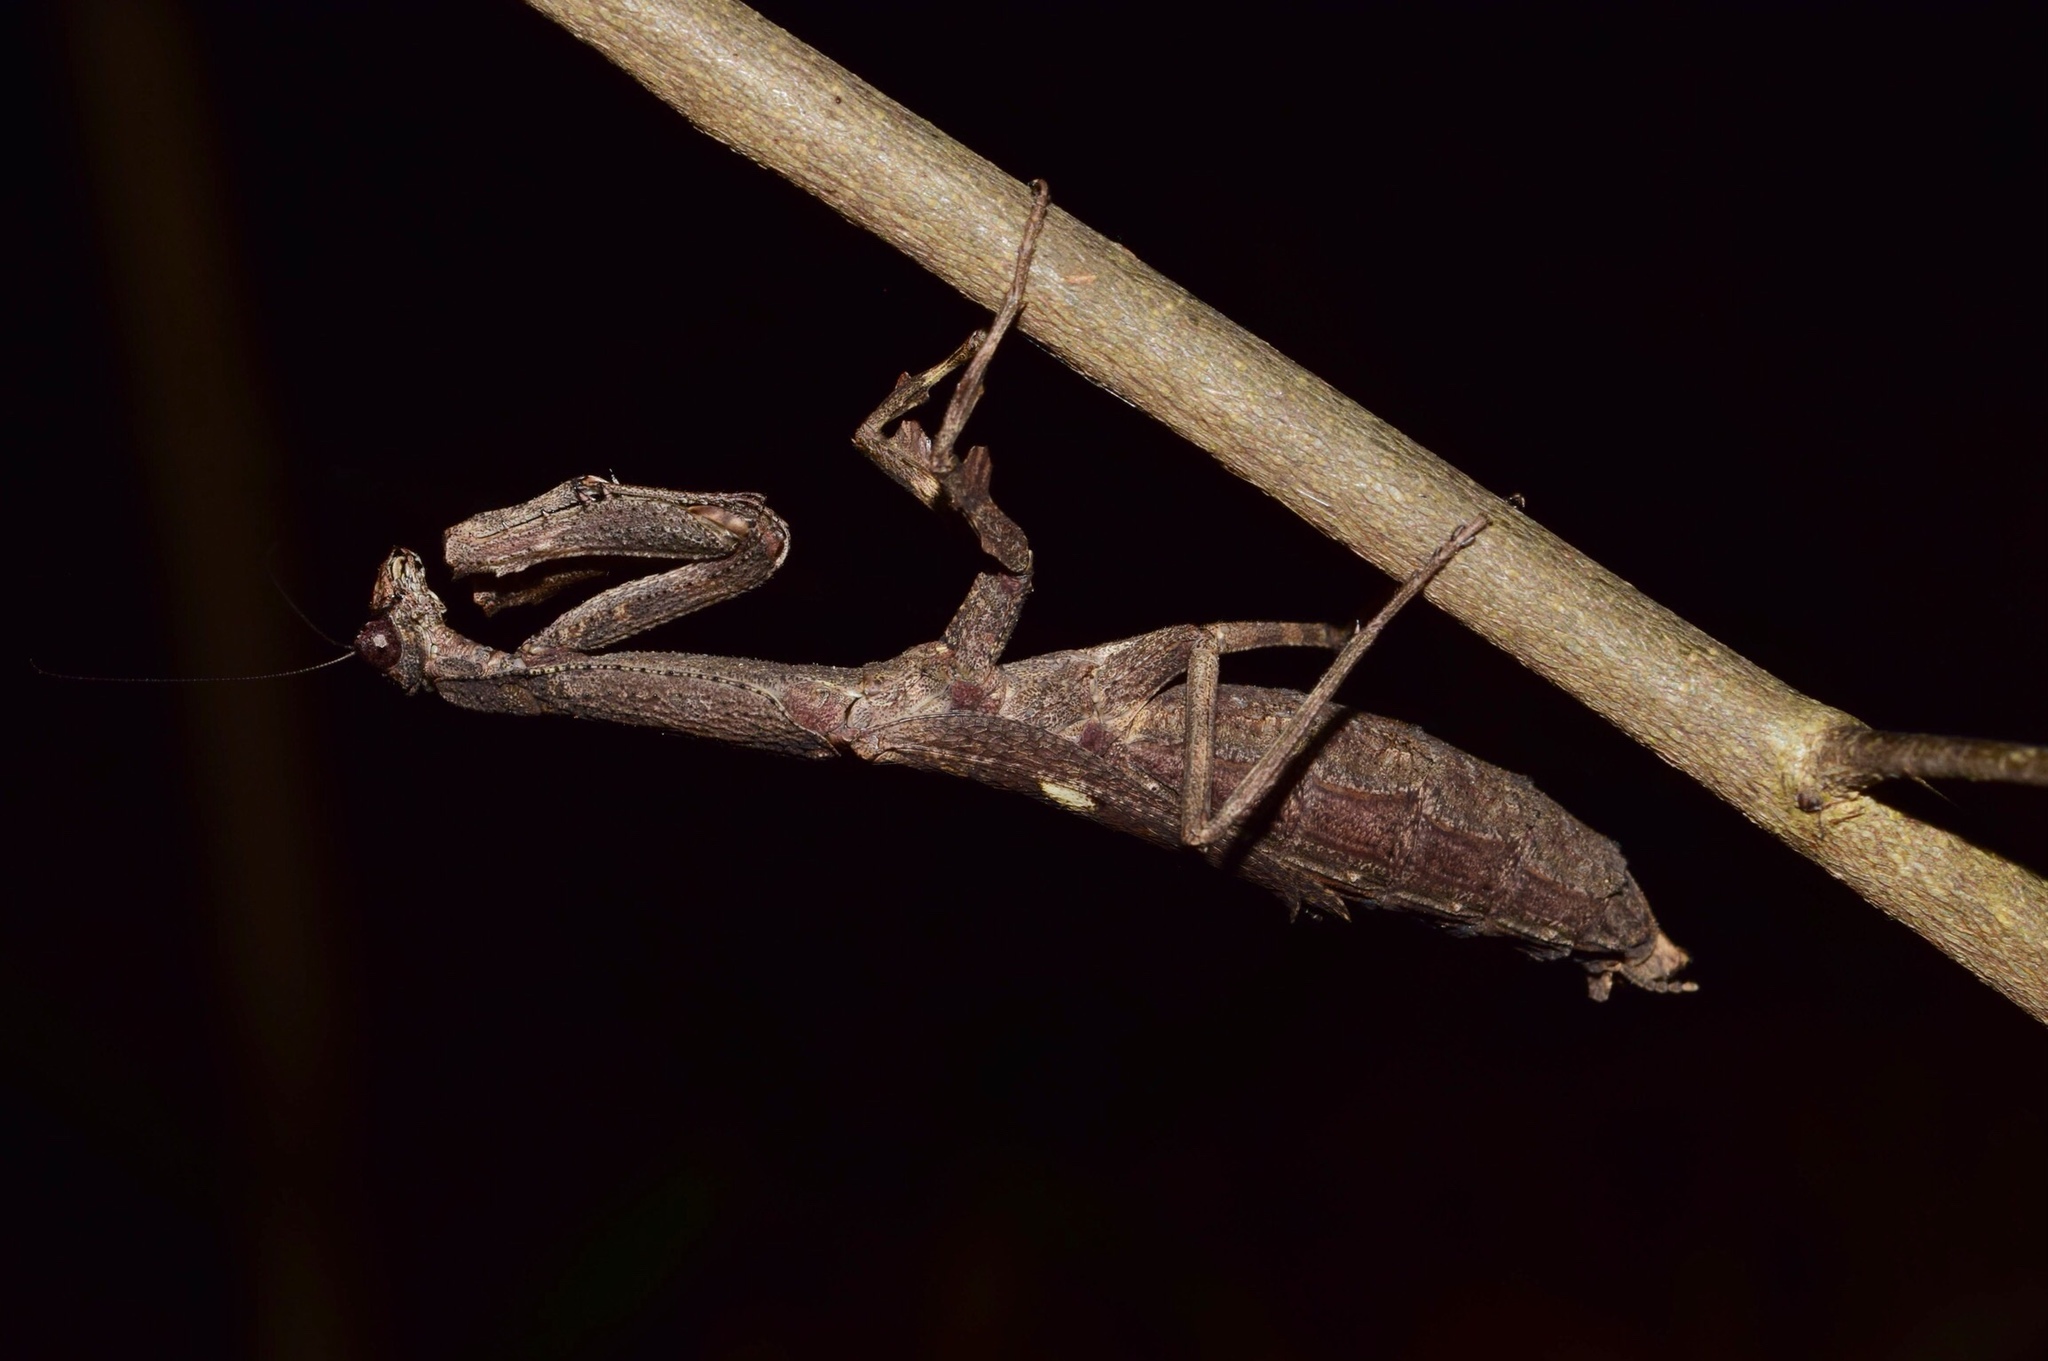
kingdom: Animalia
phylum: Arthropoda
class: Insecta
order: Mantodea
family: Deroplatyidae
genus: Popa
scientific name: Popa spurca
